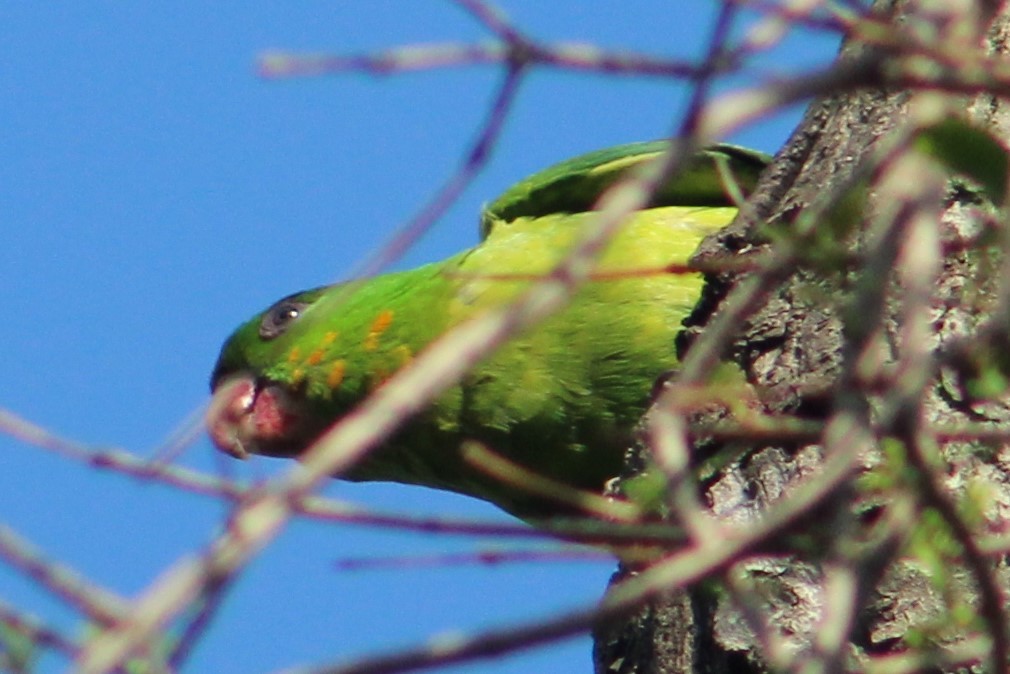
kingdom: Animalia
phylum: Chordata
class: Aves
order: Psittaciformes
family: Psittacidae
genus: Aratinga
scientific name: Aratinga holochlora
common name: Green parakeet
